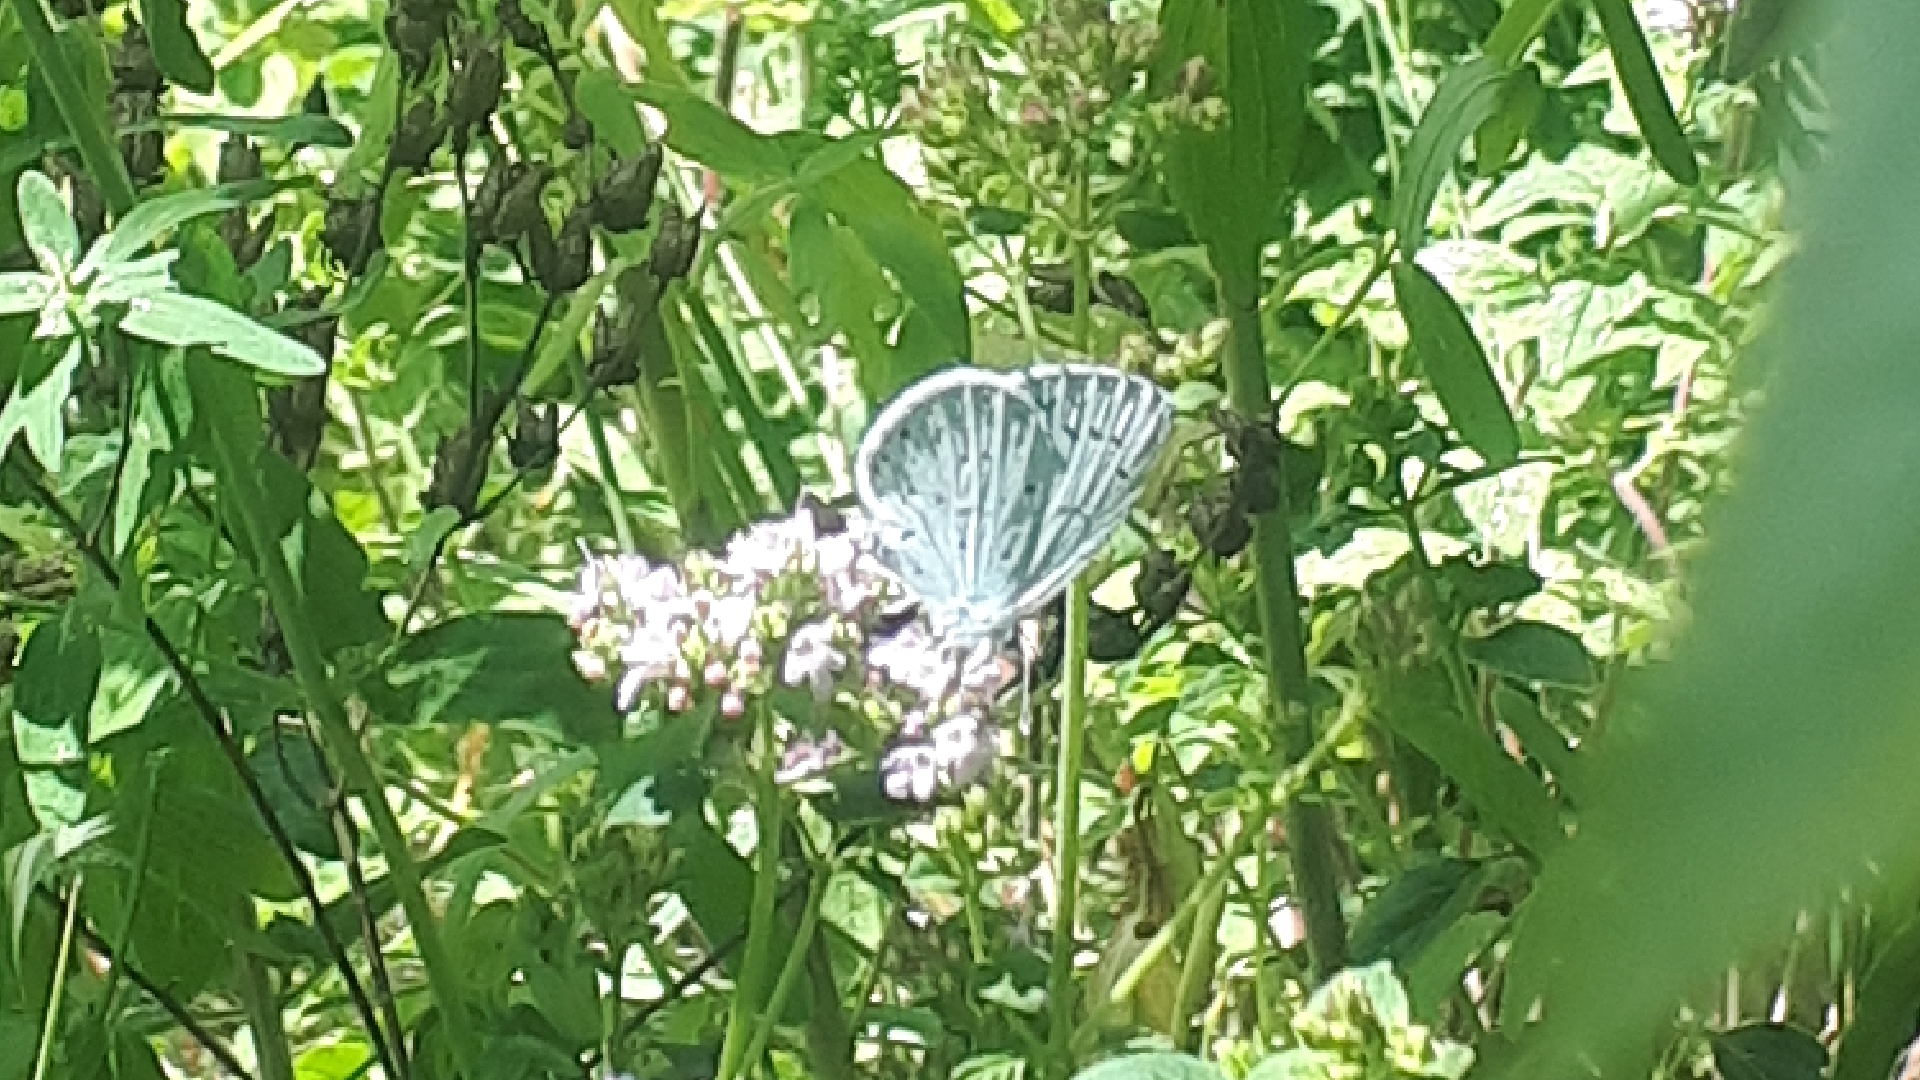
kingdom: Animalia
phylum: Arthropoda
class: Insecta
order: Lepidoptera
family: Lycaenidae
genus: Celastrina
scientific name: Celastrina argiolus
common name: Holly blue
